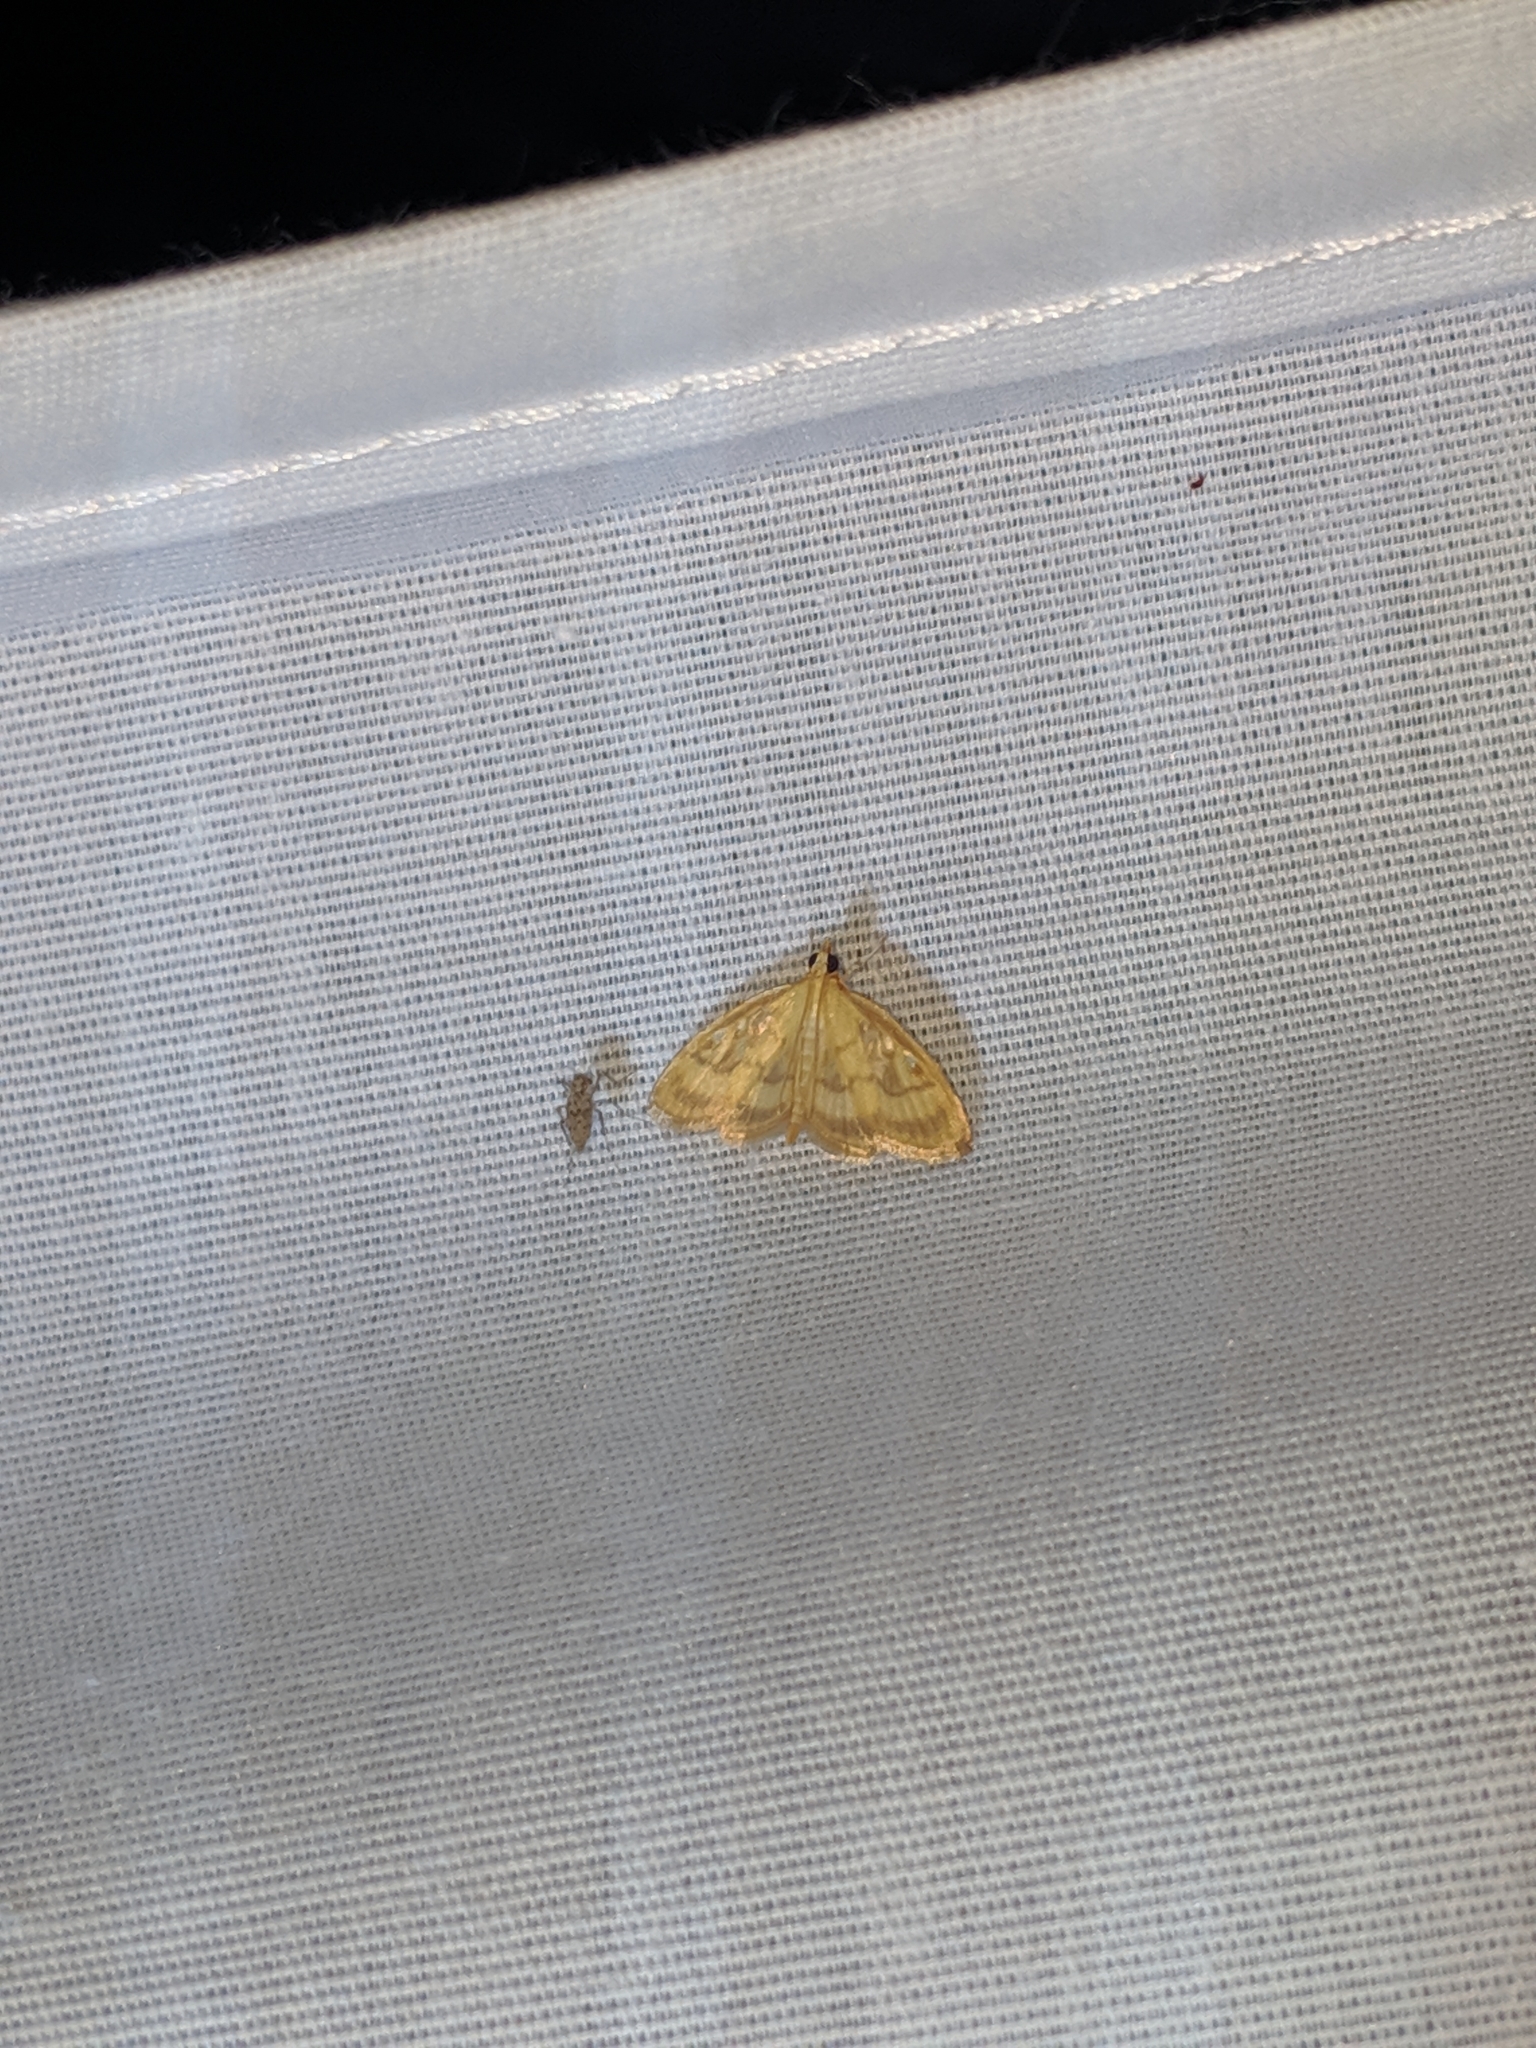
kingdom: Animalia
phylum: Arthropoda
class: Insecta
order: Lepidoptera
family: Crambidae
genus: Crocidophora
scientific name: Crocidophora tuberculalis
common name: Pale-winged crocidiphora moth
